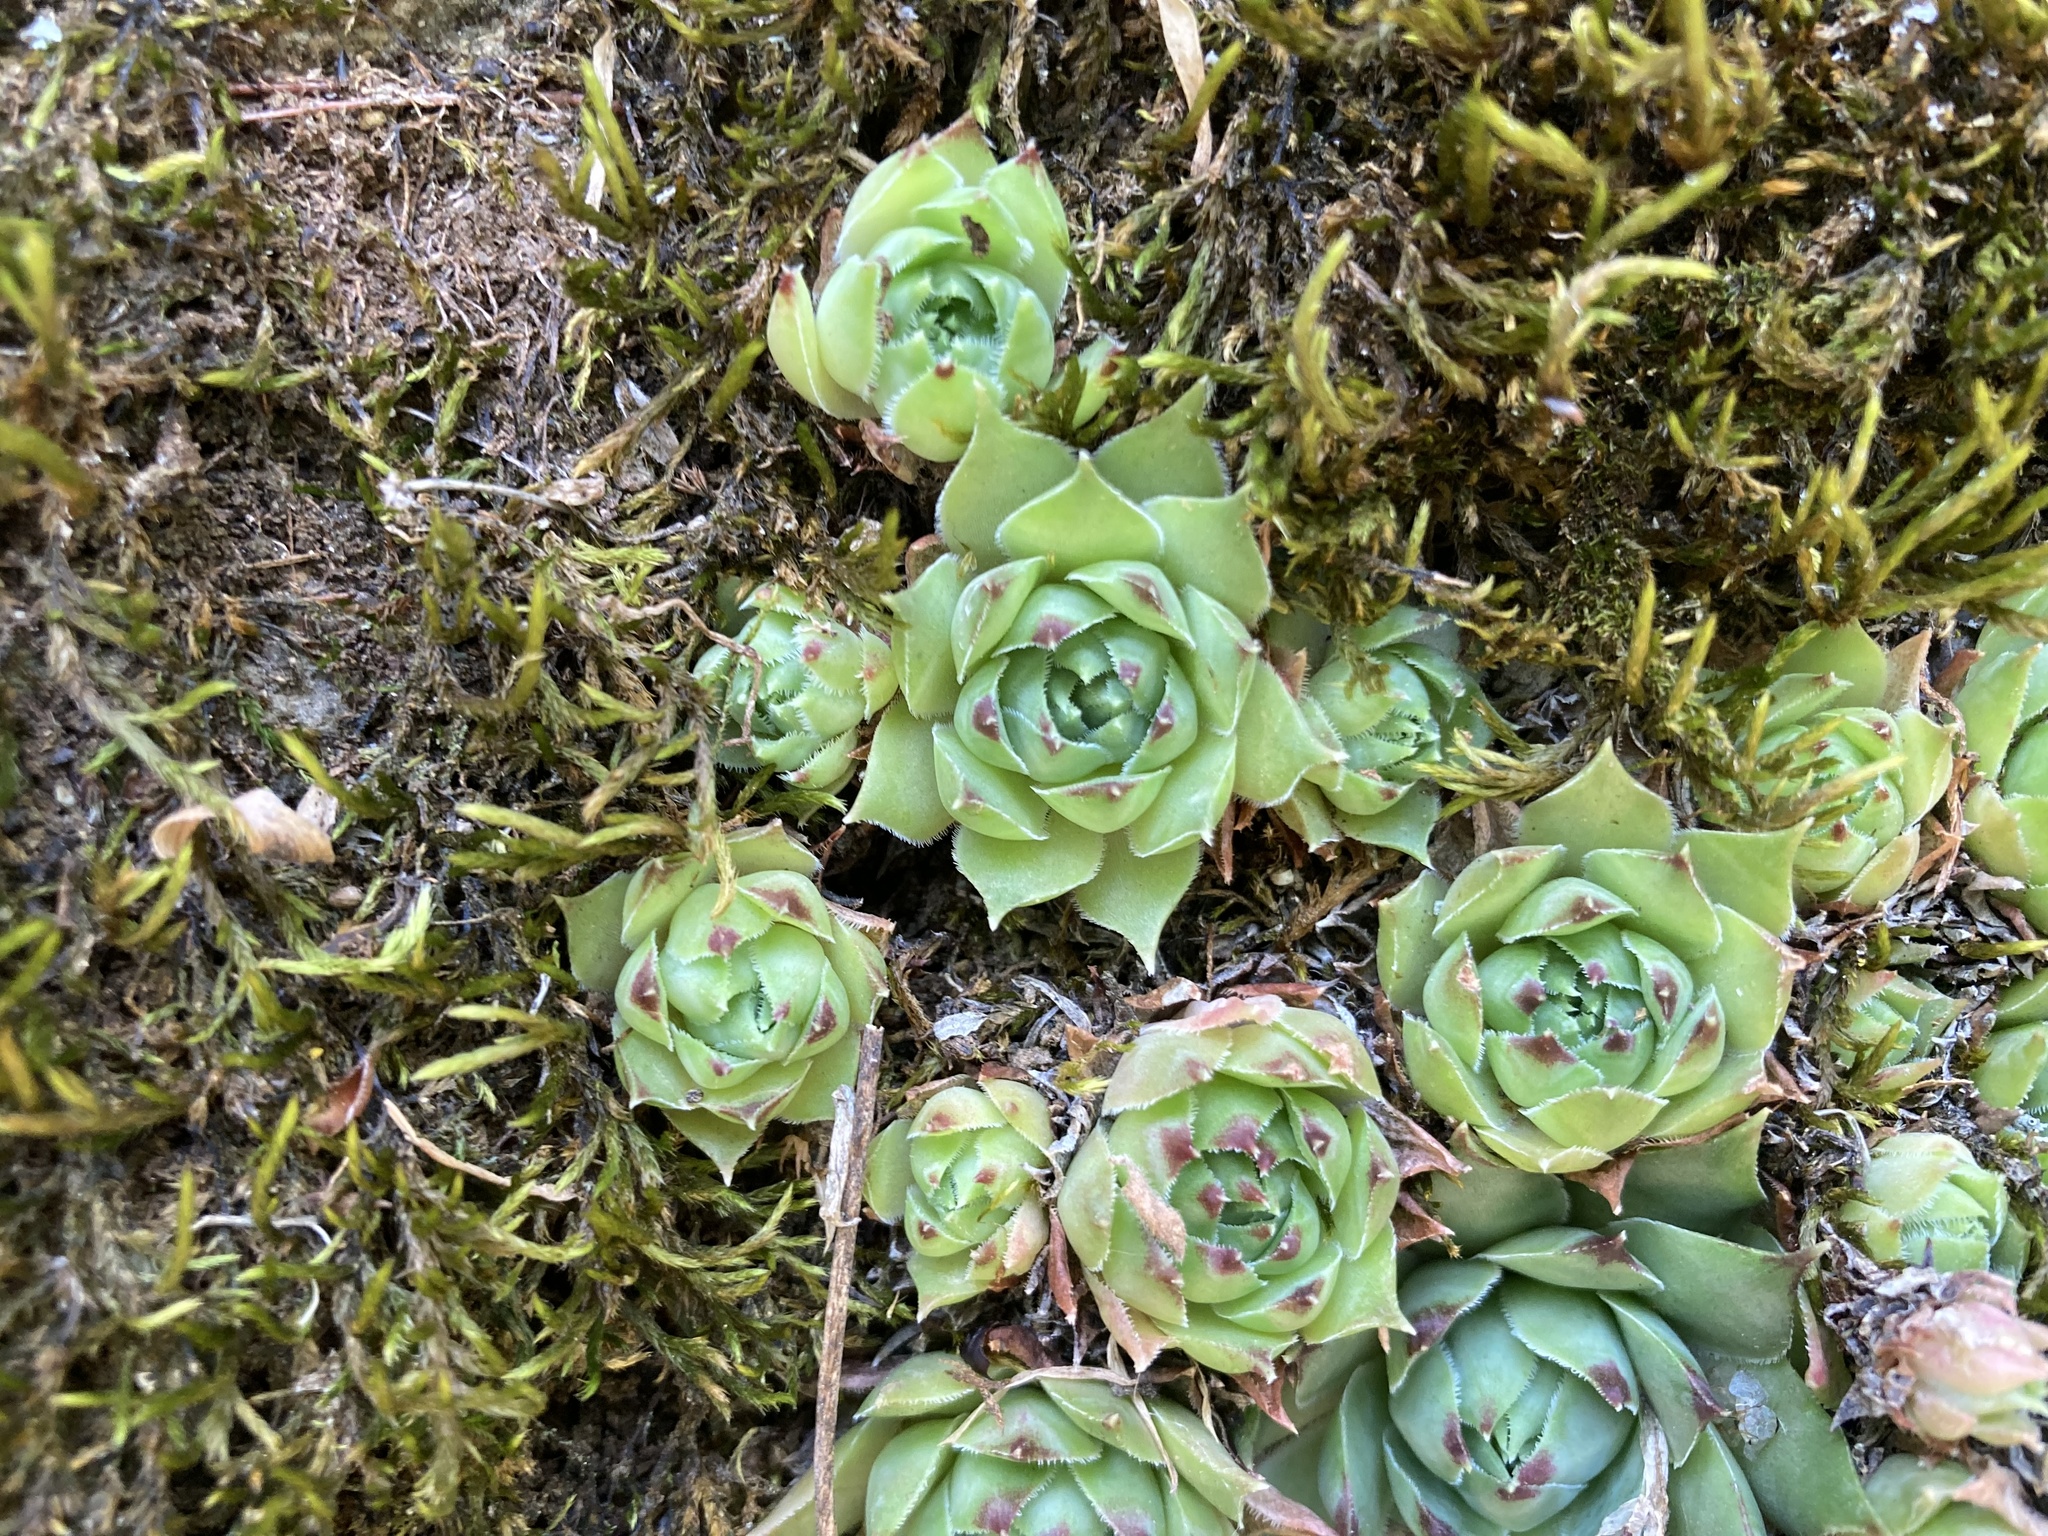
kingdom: Plantae
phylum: Tracheophyta
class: Magnoliopsida
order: Saxifragales
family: Crassulaceae
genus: Sempervivum
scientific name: Sempervivum tectorum
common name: House-leek
